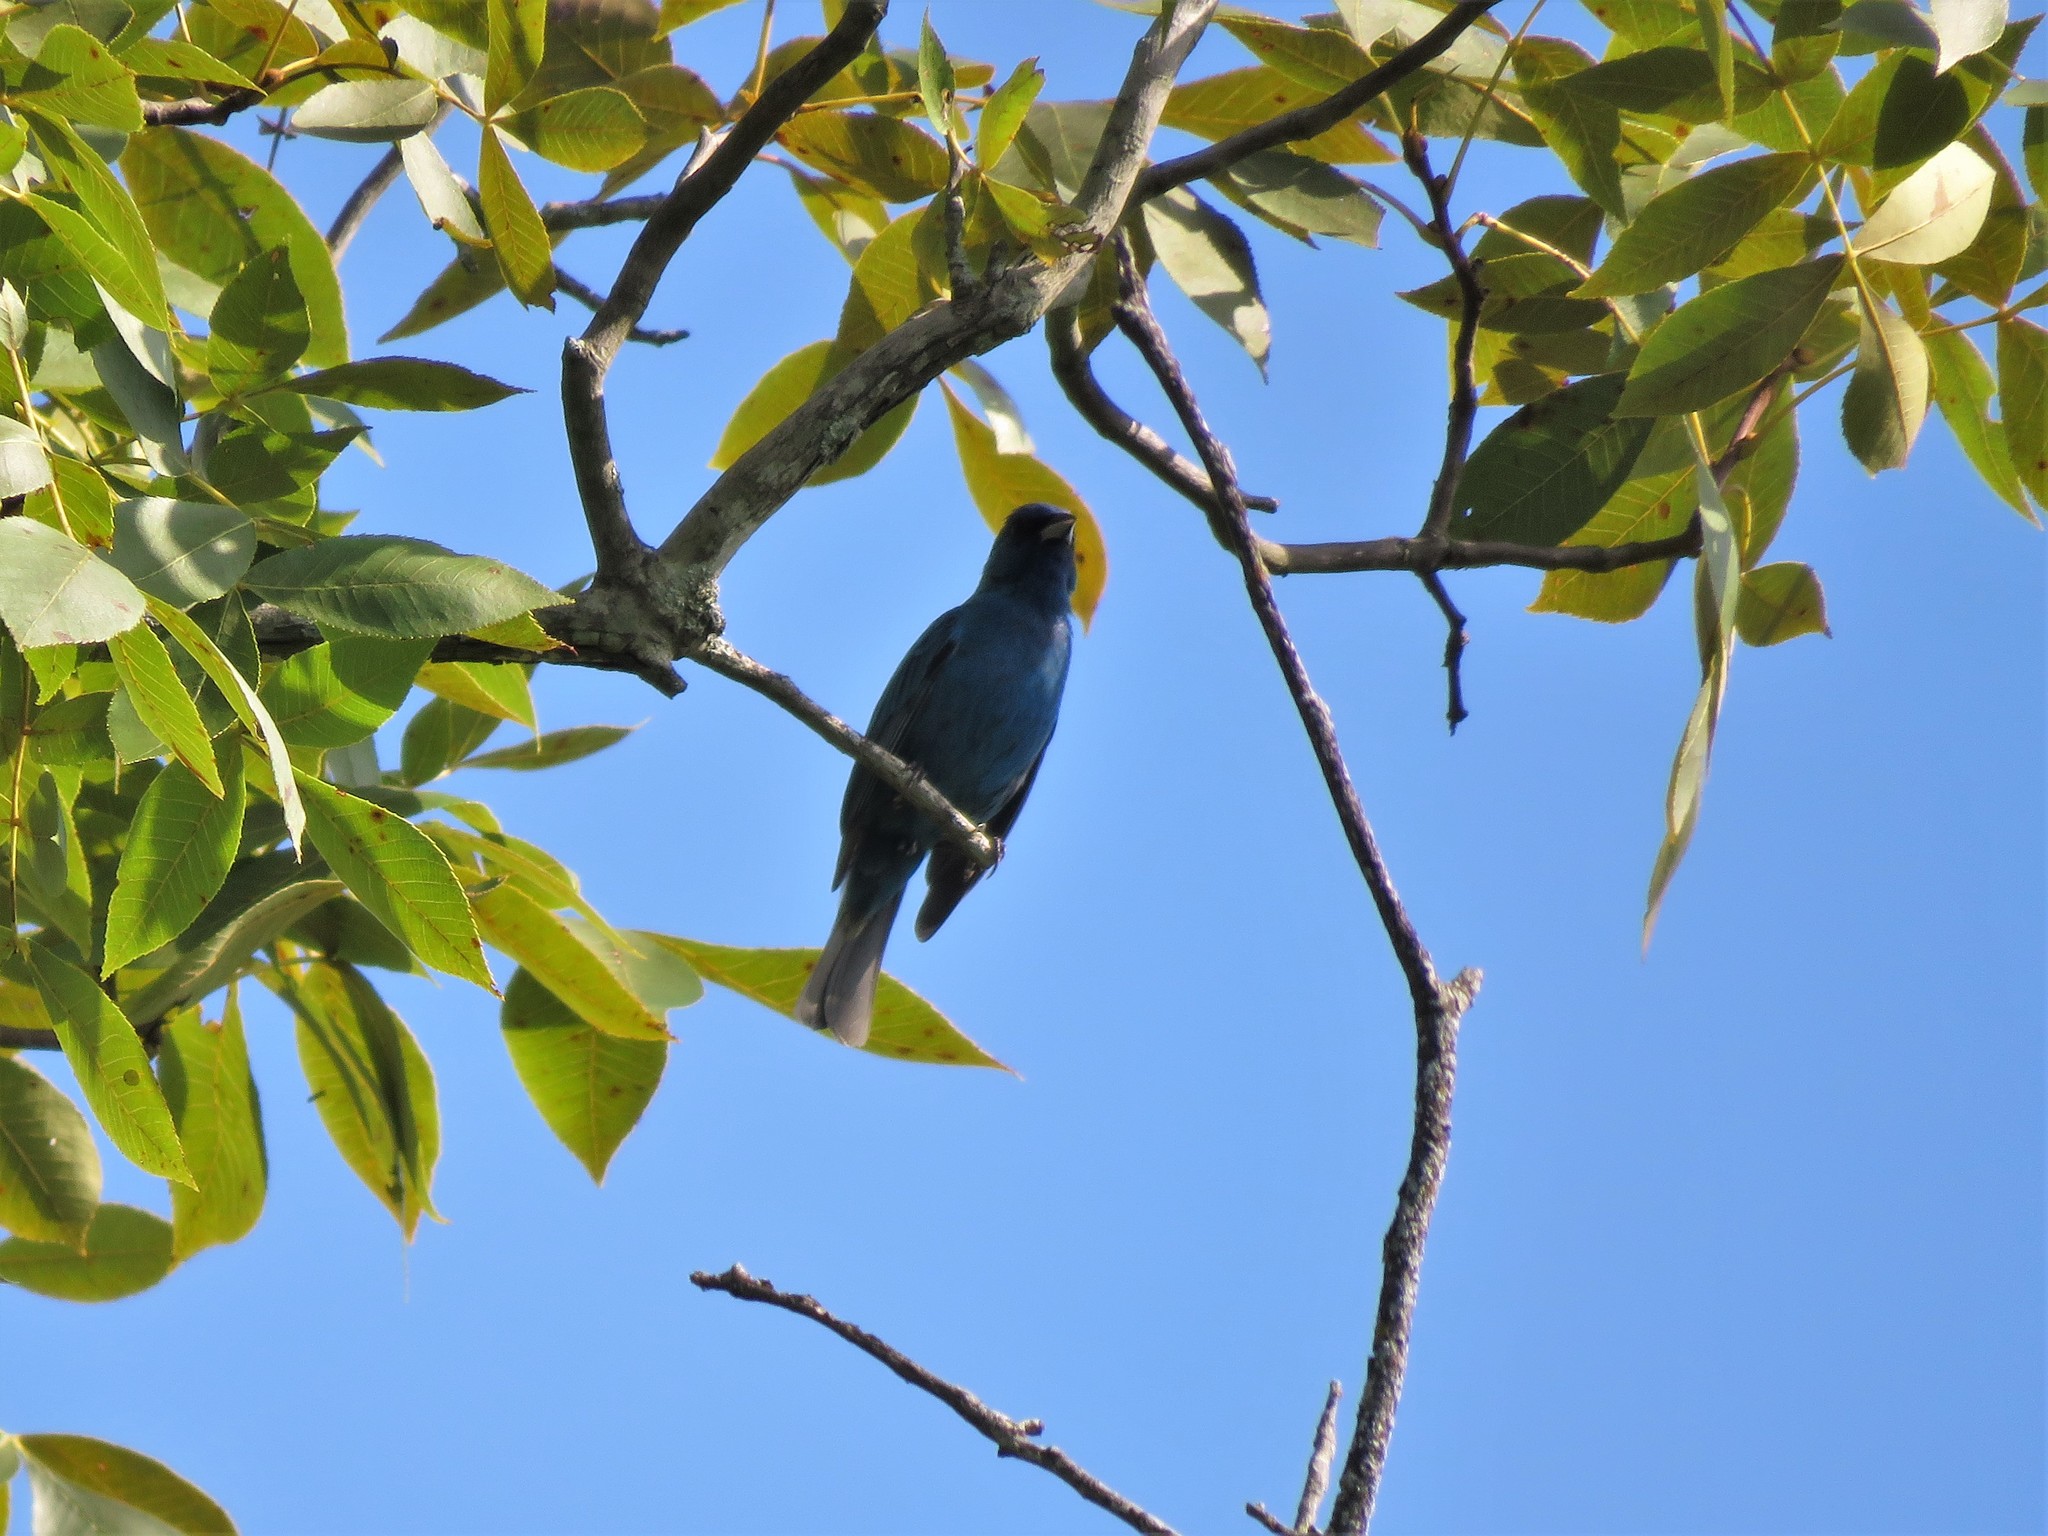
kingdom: Animalia
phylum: Chordata
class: Aves
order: Passeriformes
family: Cardinalidae
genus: Passerina
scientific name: Passerina cyanea
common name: Indigo bunting
